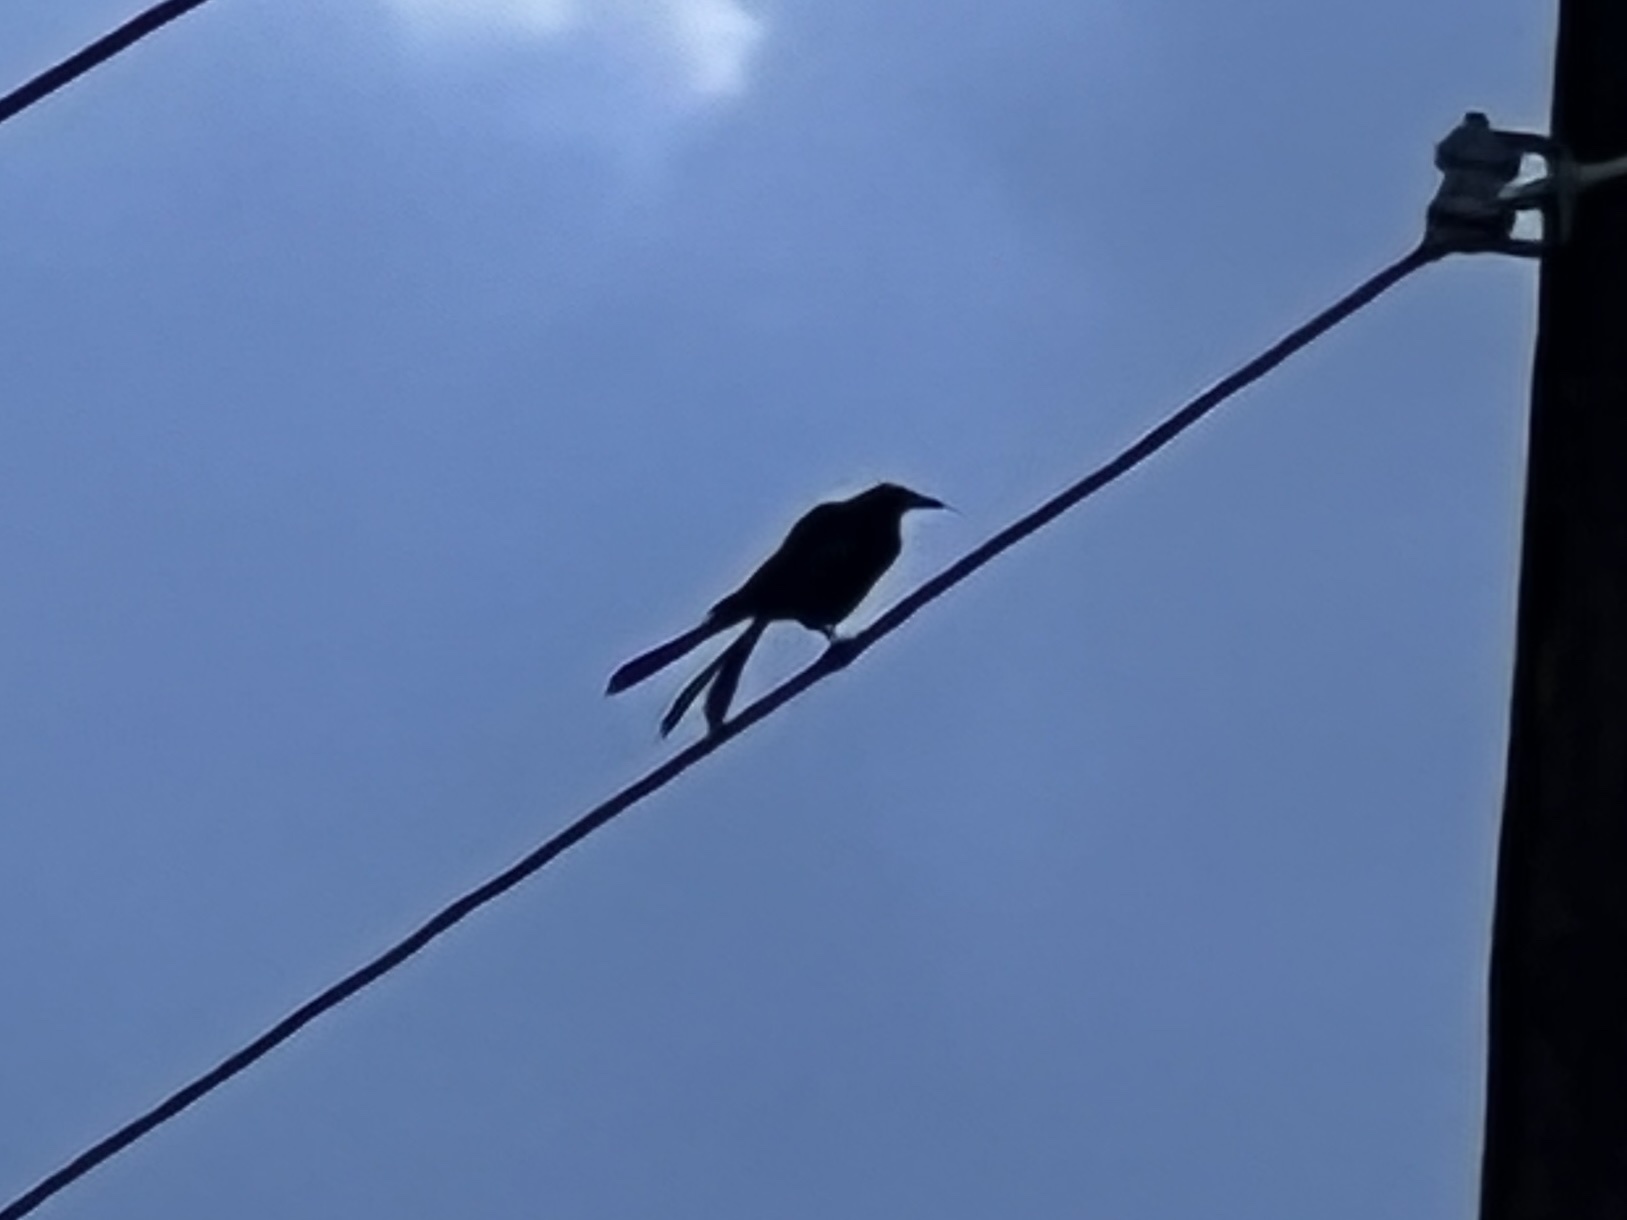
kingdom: Animalia
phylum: Chordata
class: Aves
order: Passeriformes
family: Icteridae
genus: Quiscalus
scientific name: Quiscalus mexicanus
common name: Great-tailed grackle
